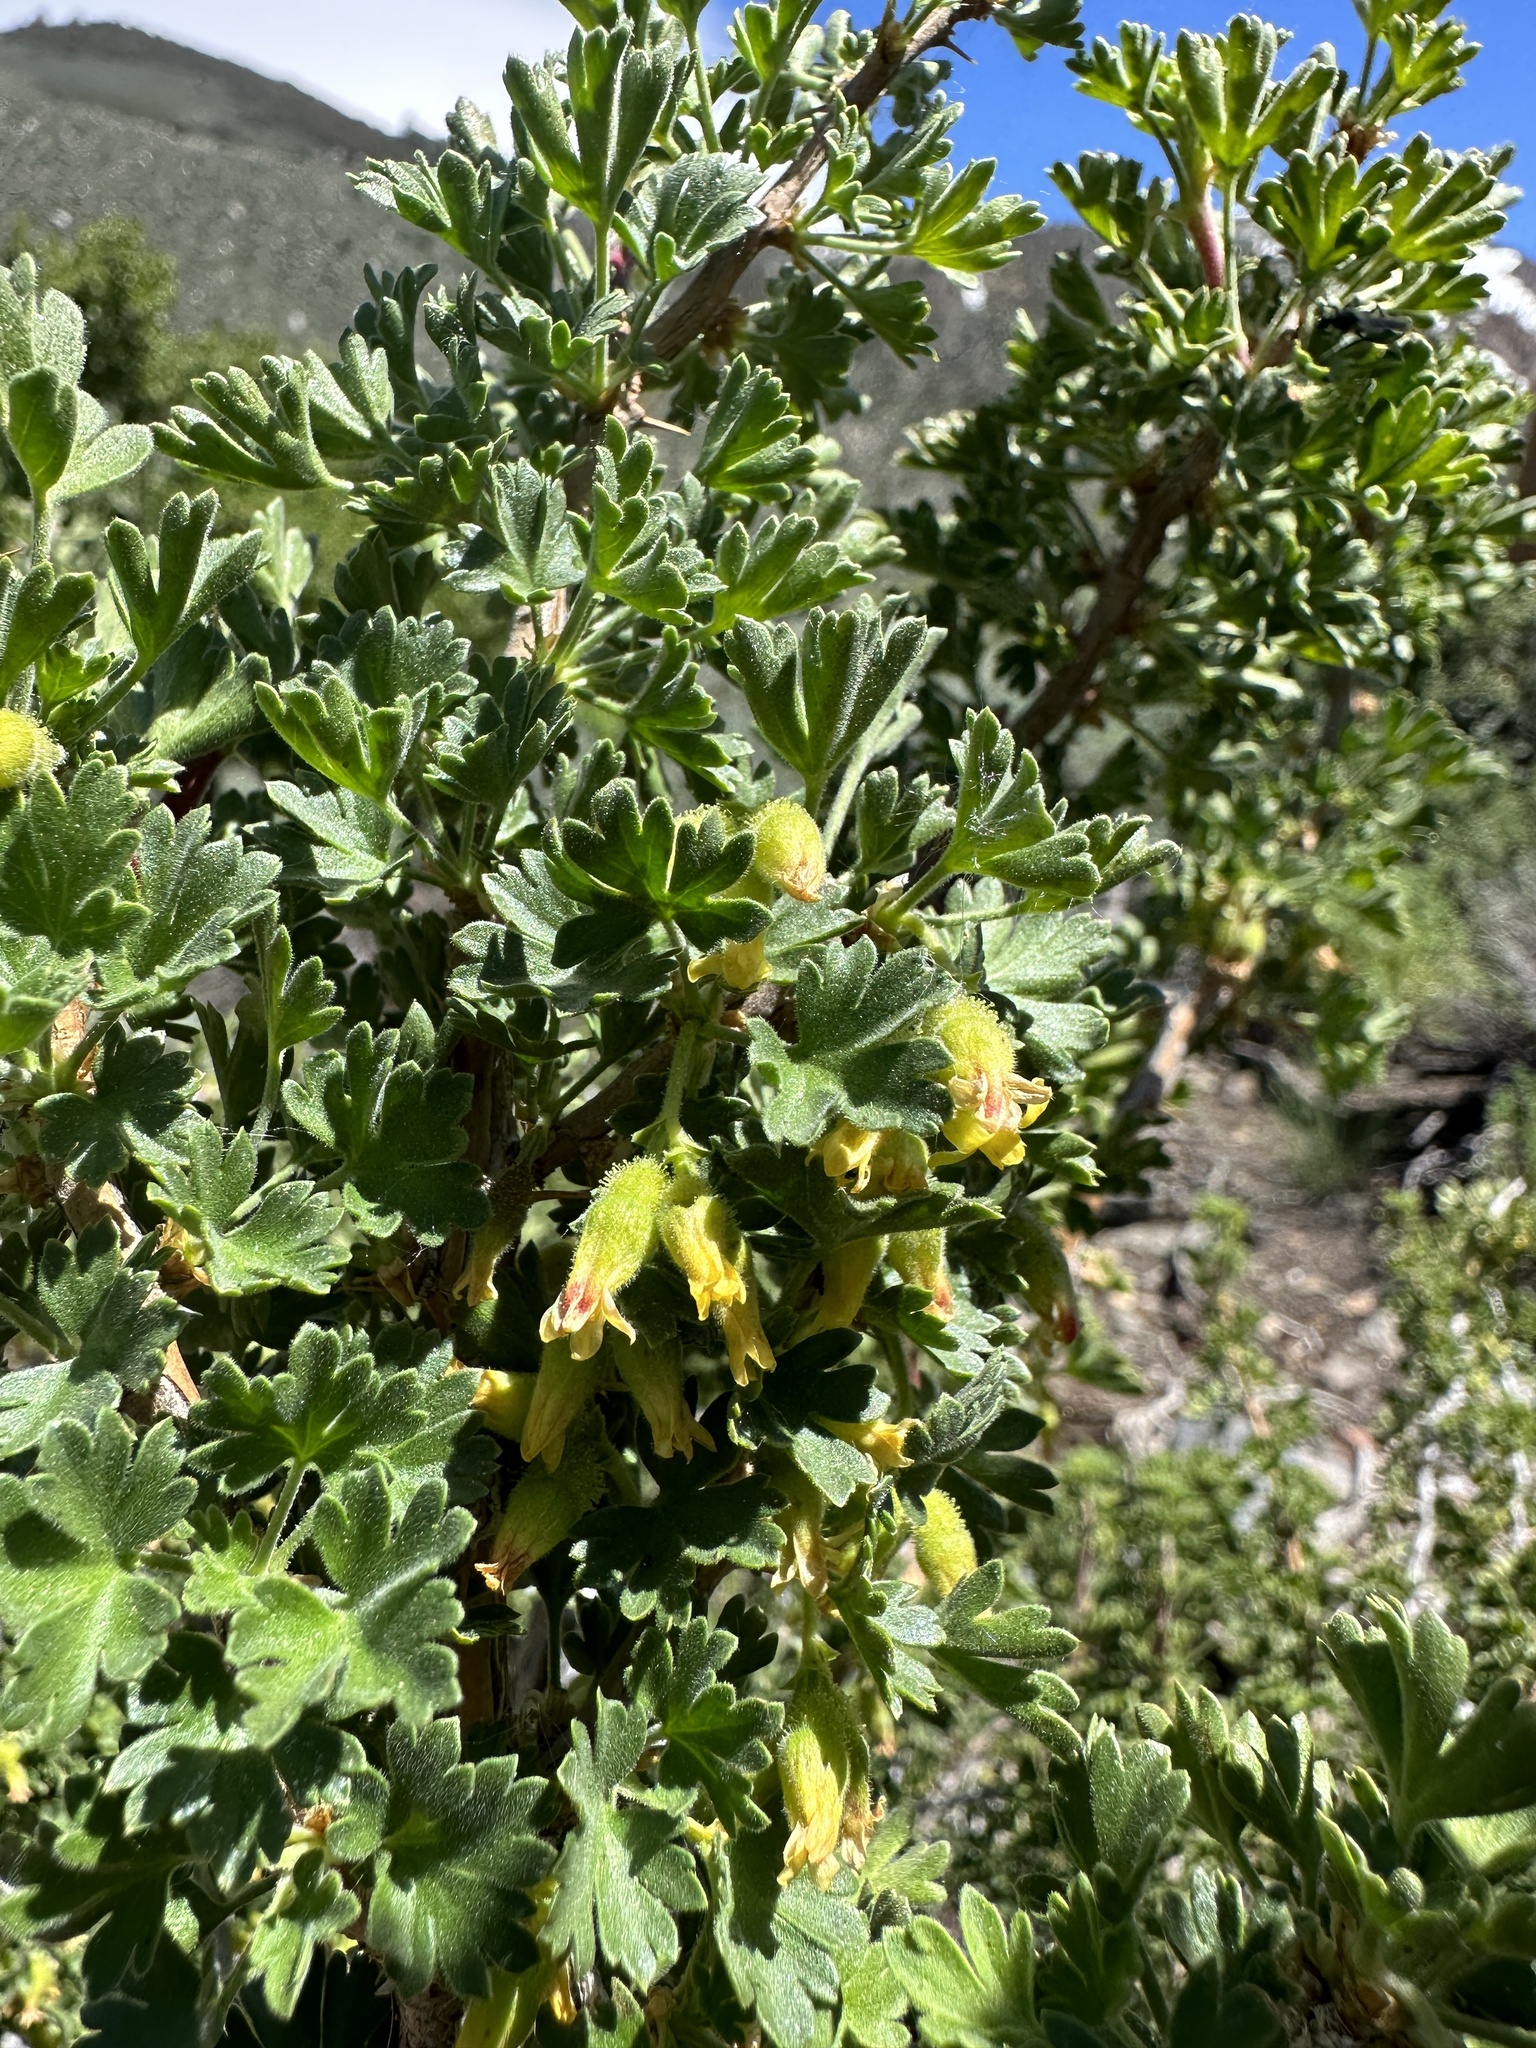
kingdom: Plantae
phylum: Tracheophyta
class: Magnoliopsida
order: Saxifragales
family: Grossulariaceae
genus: Ribes
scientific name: Ribes velutinum
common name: Desert gooseberry
